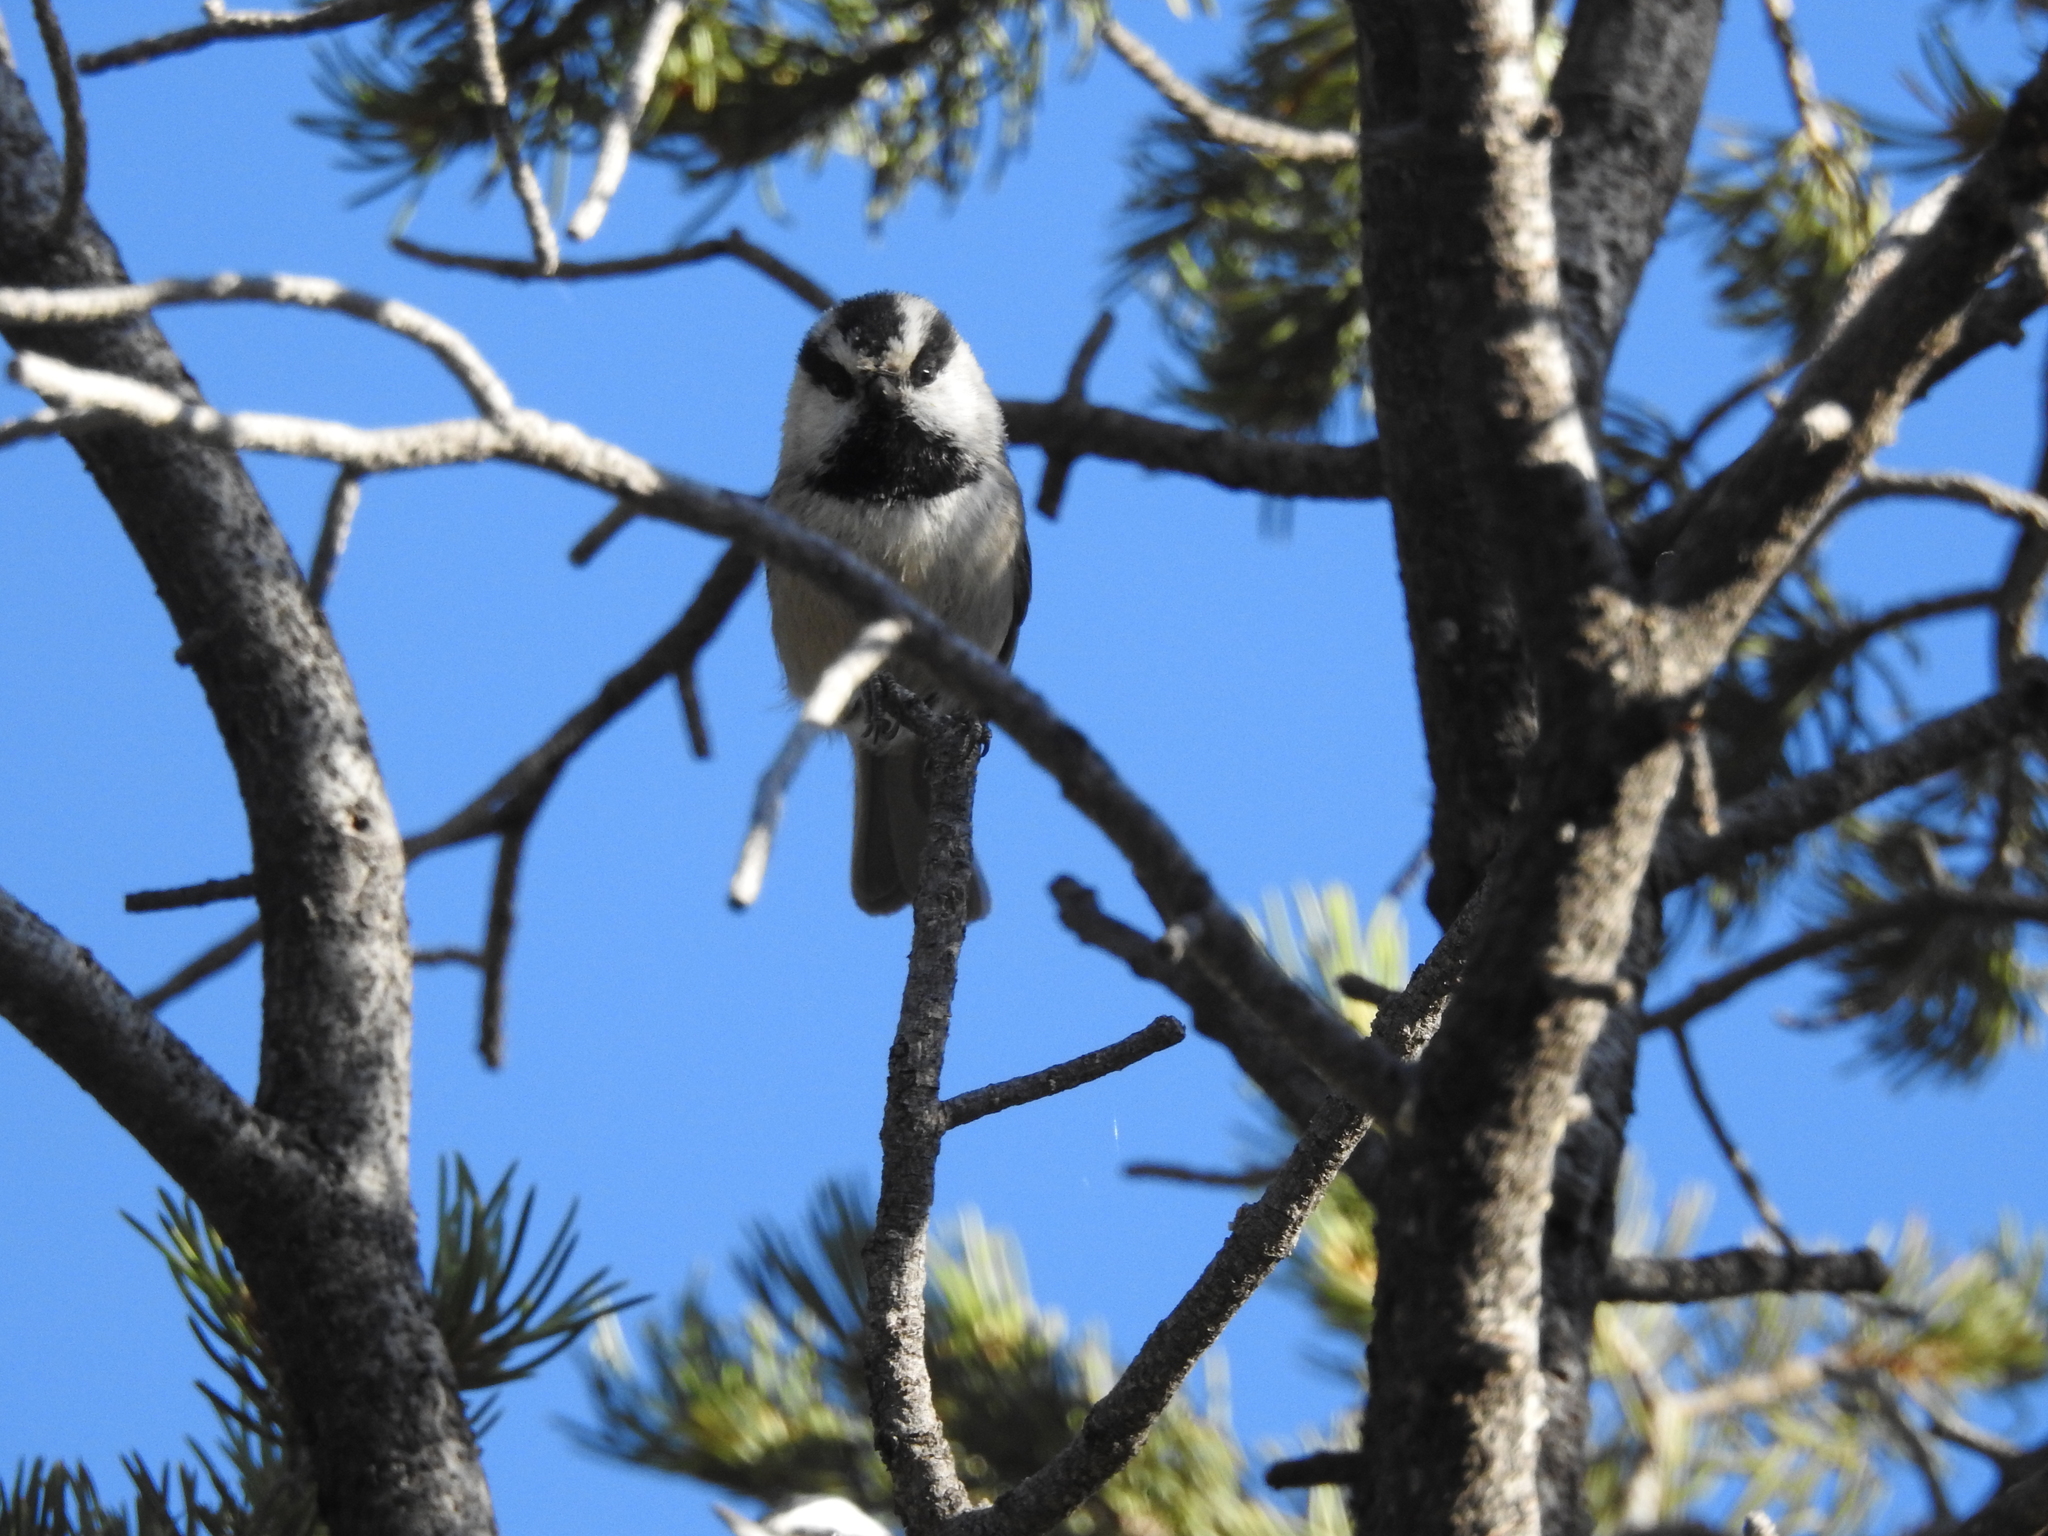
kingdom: Animalia
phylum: Chordata
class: Aves
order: Passeriformes
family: Paridae
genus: Poecile
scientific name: Poecile gambeli
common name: Mountain chickadee
